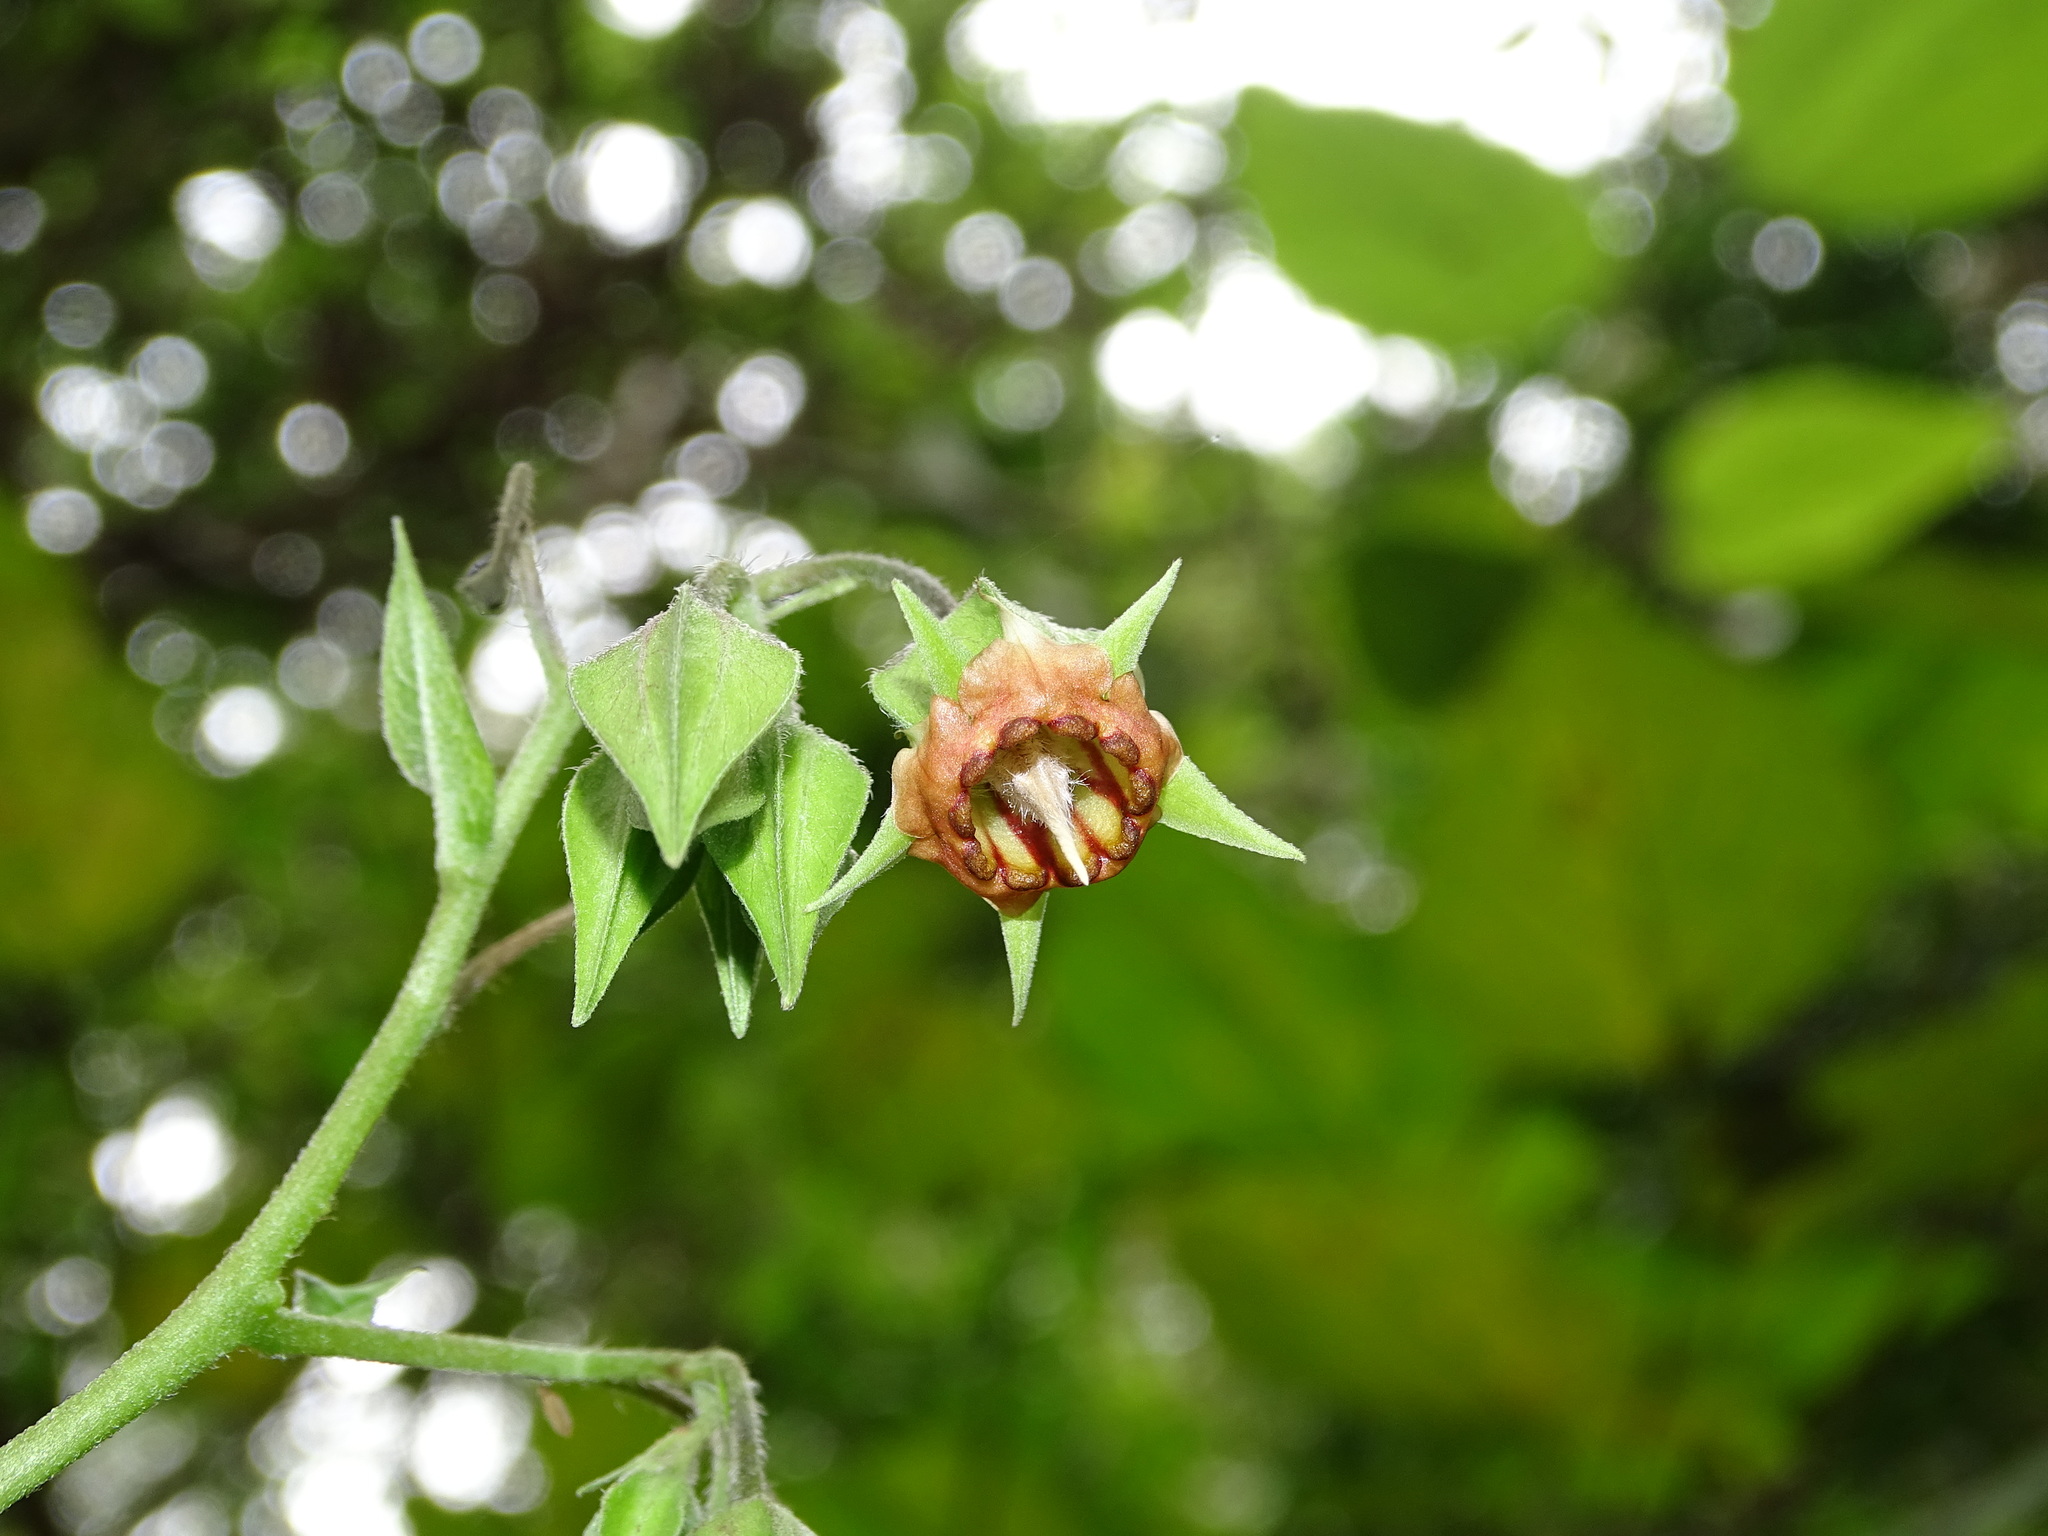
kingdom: Plantae
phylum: Tracheophyta
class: Magnoliopsida
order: Boraginales
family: Boraginaceae
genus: Trichodesma
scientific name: Trichodesma calycosum
